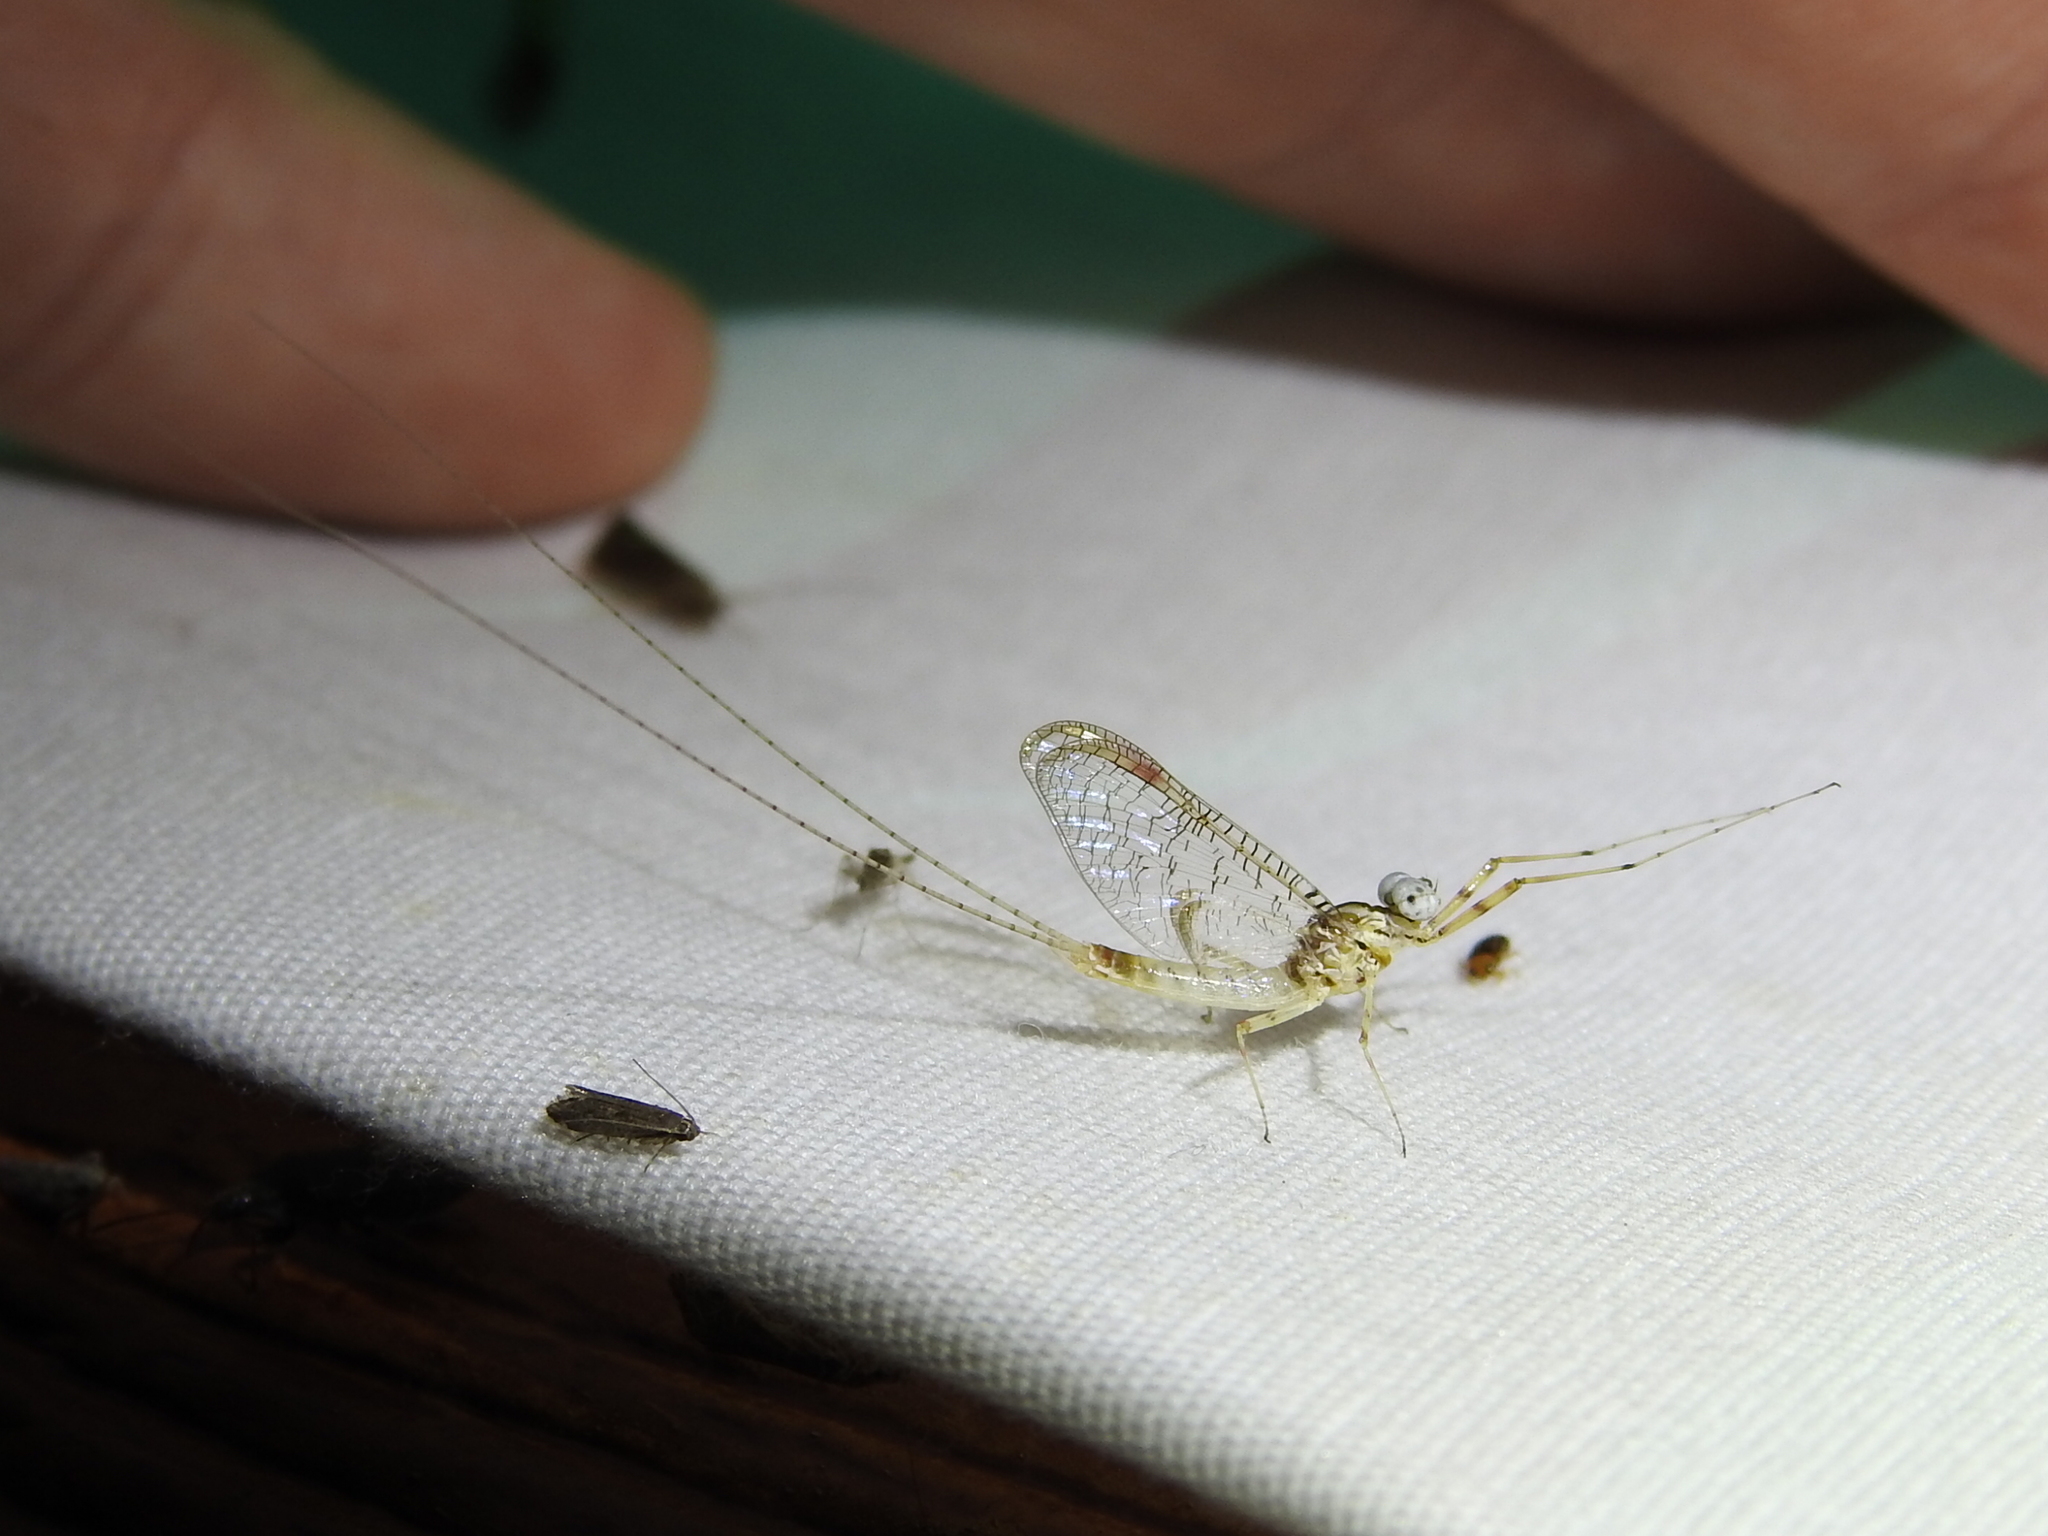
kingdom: Animalia
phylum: Arthropoda
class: Insecta
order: Ephemeroptera
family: Heptageniidae
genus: Maccaffertium
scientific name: Maccaffertium terminatum
